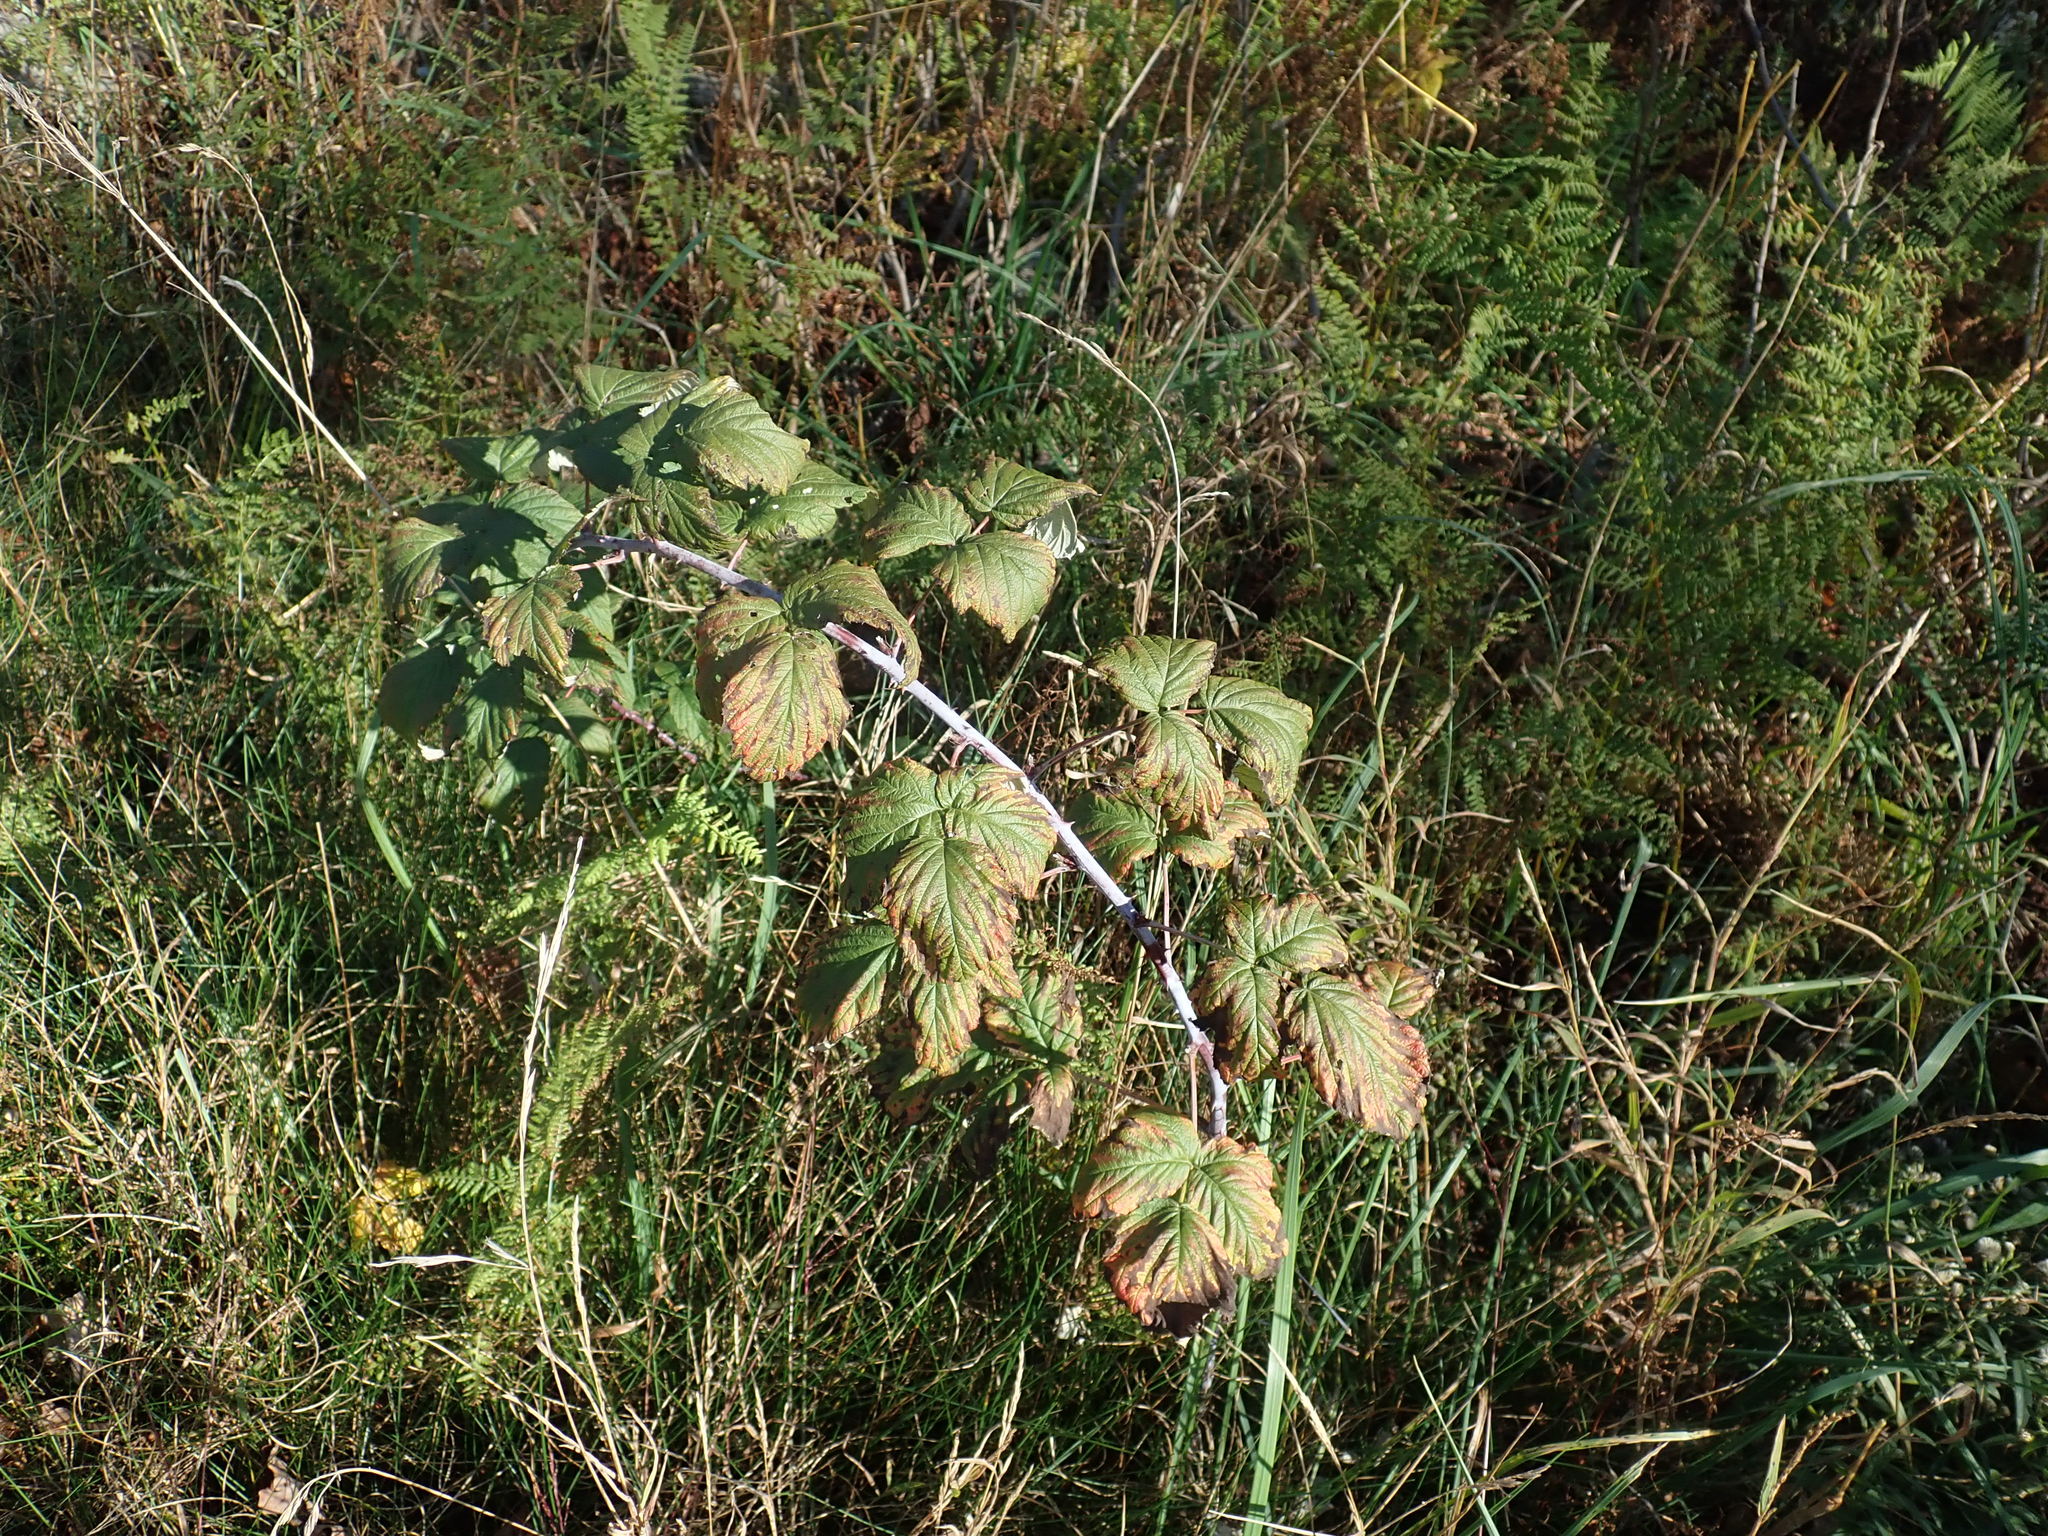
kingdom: Plantae
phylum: Tracheophyta
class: Magnoliopsida
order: Rosales
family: Rosaceae
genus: Rubus
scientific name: Rubus occidentalis
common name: Black raspberry
